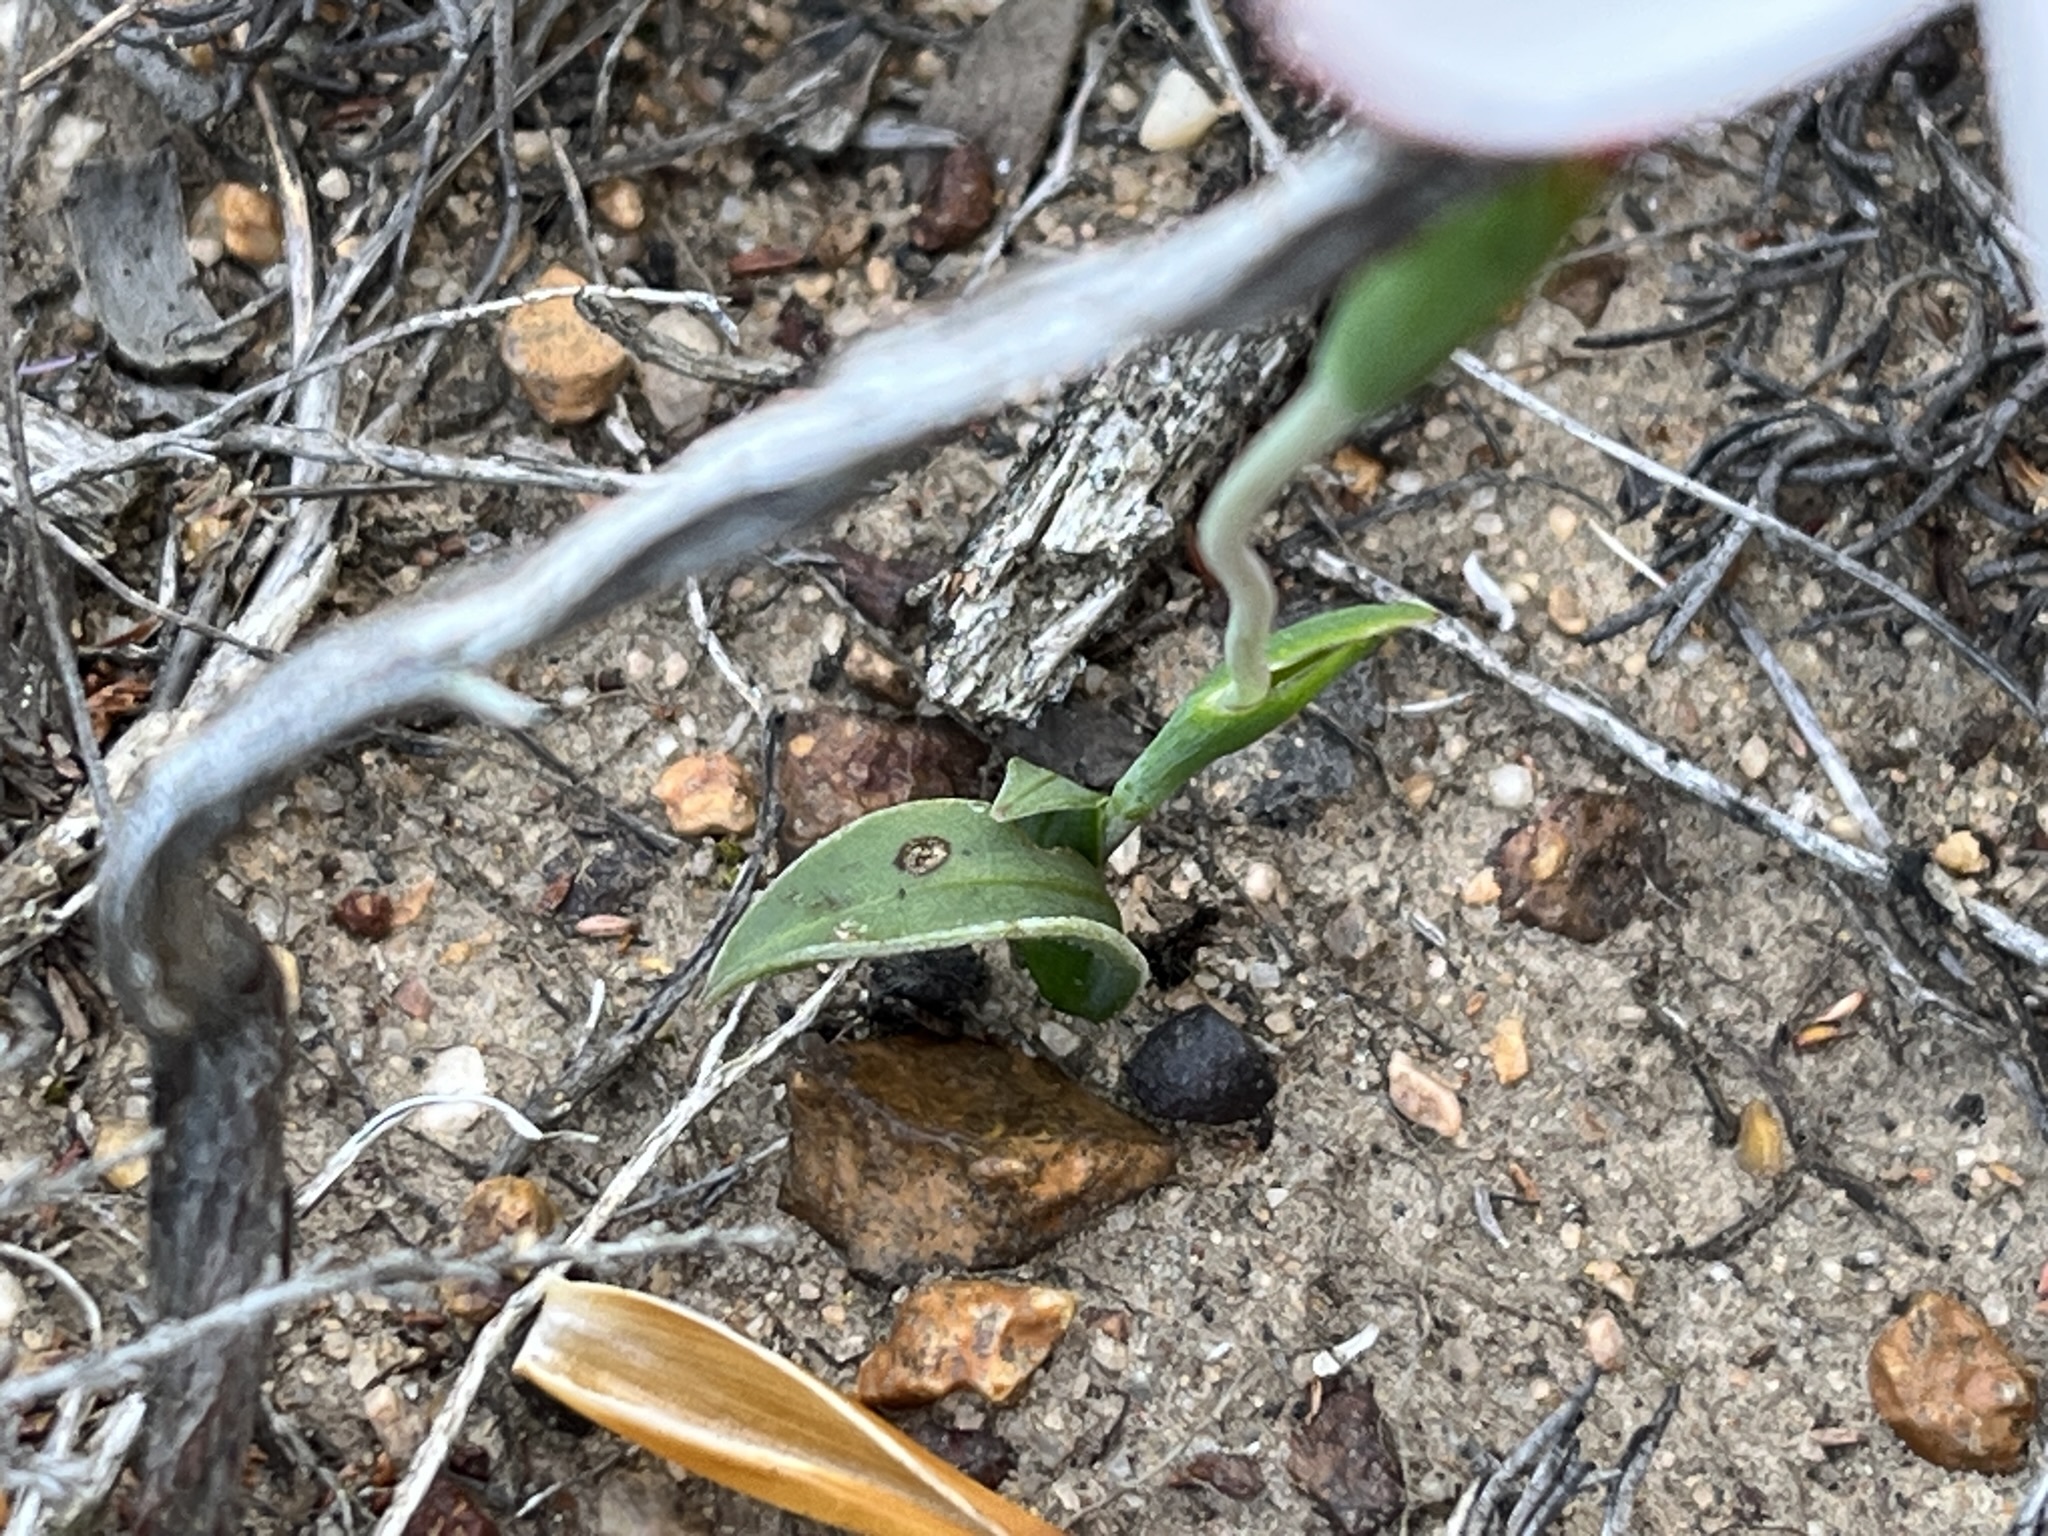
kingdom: Plantae
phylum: Tracheophyta
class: Liliopsida
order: Asparagales
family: Iridaceae
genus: Geissorhiza
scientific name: Geissorhiza ovata
